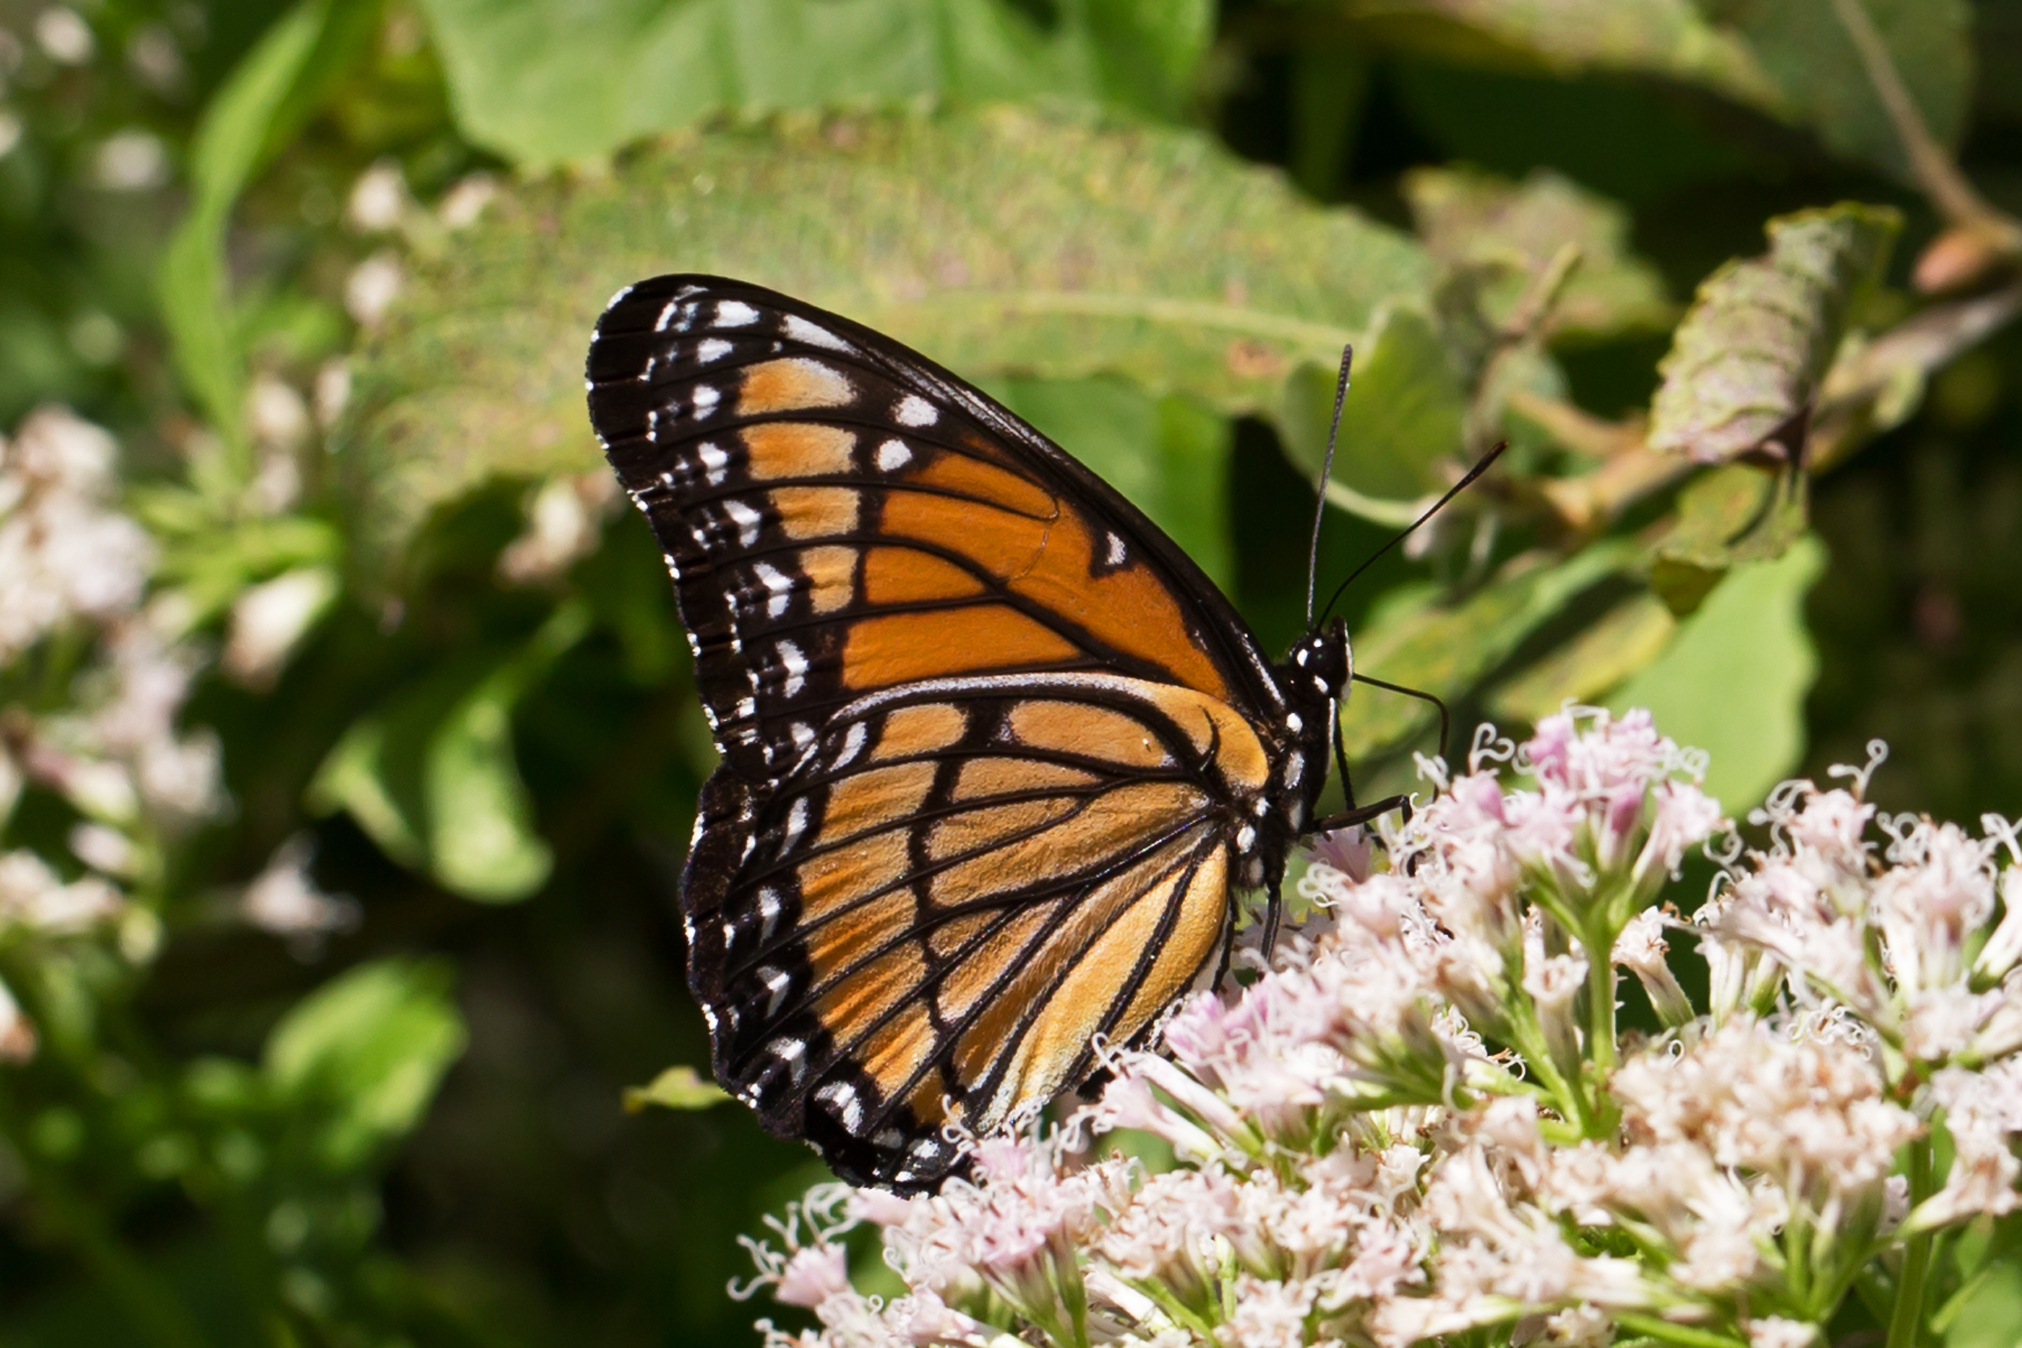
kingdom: Animalia
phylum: Arthropoda
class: Insecta
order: Lepidoptera
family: Nymphalidae
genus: Limenitis
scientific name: Limenitis archippus
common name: Viceroy
